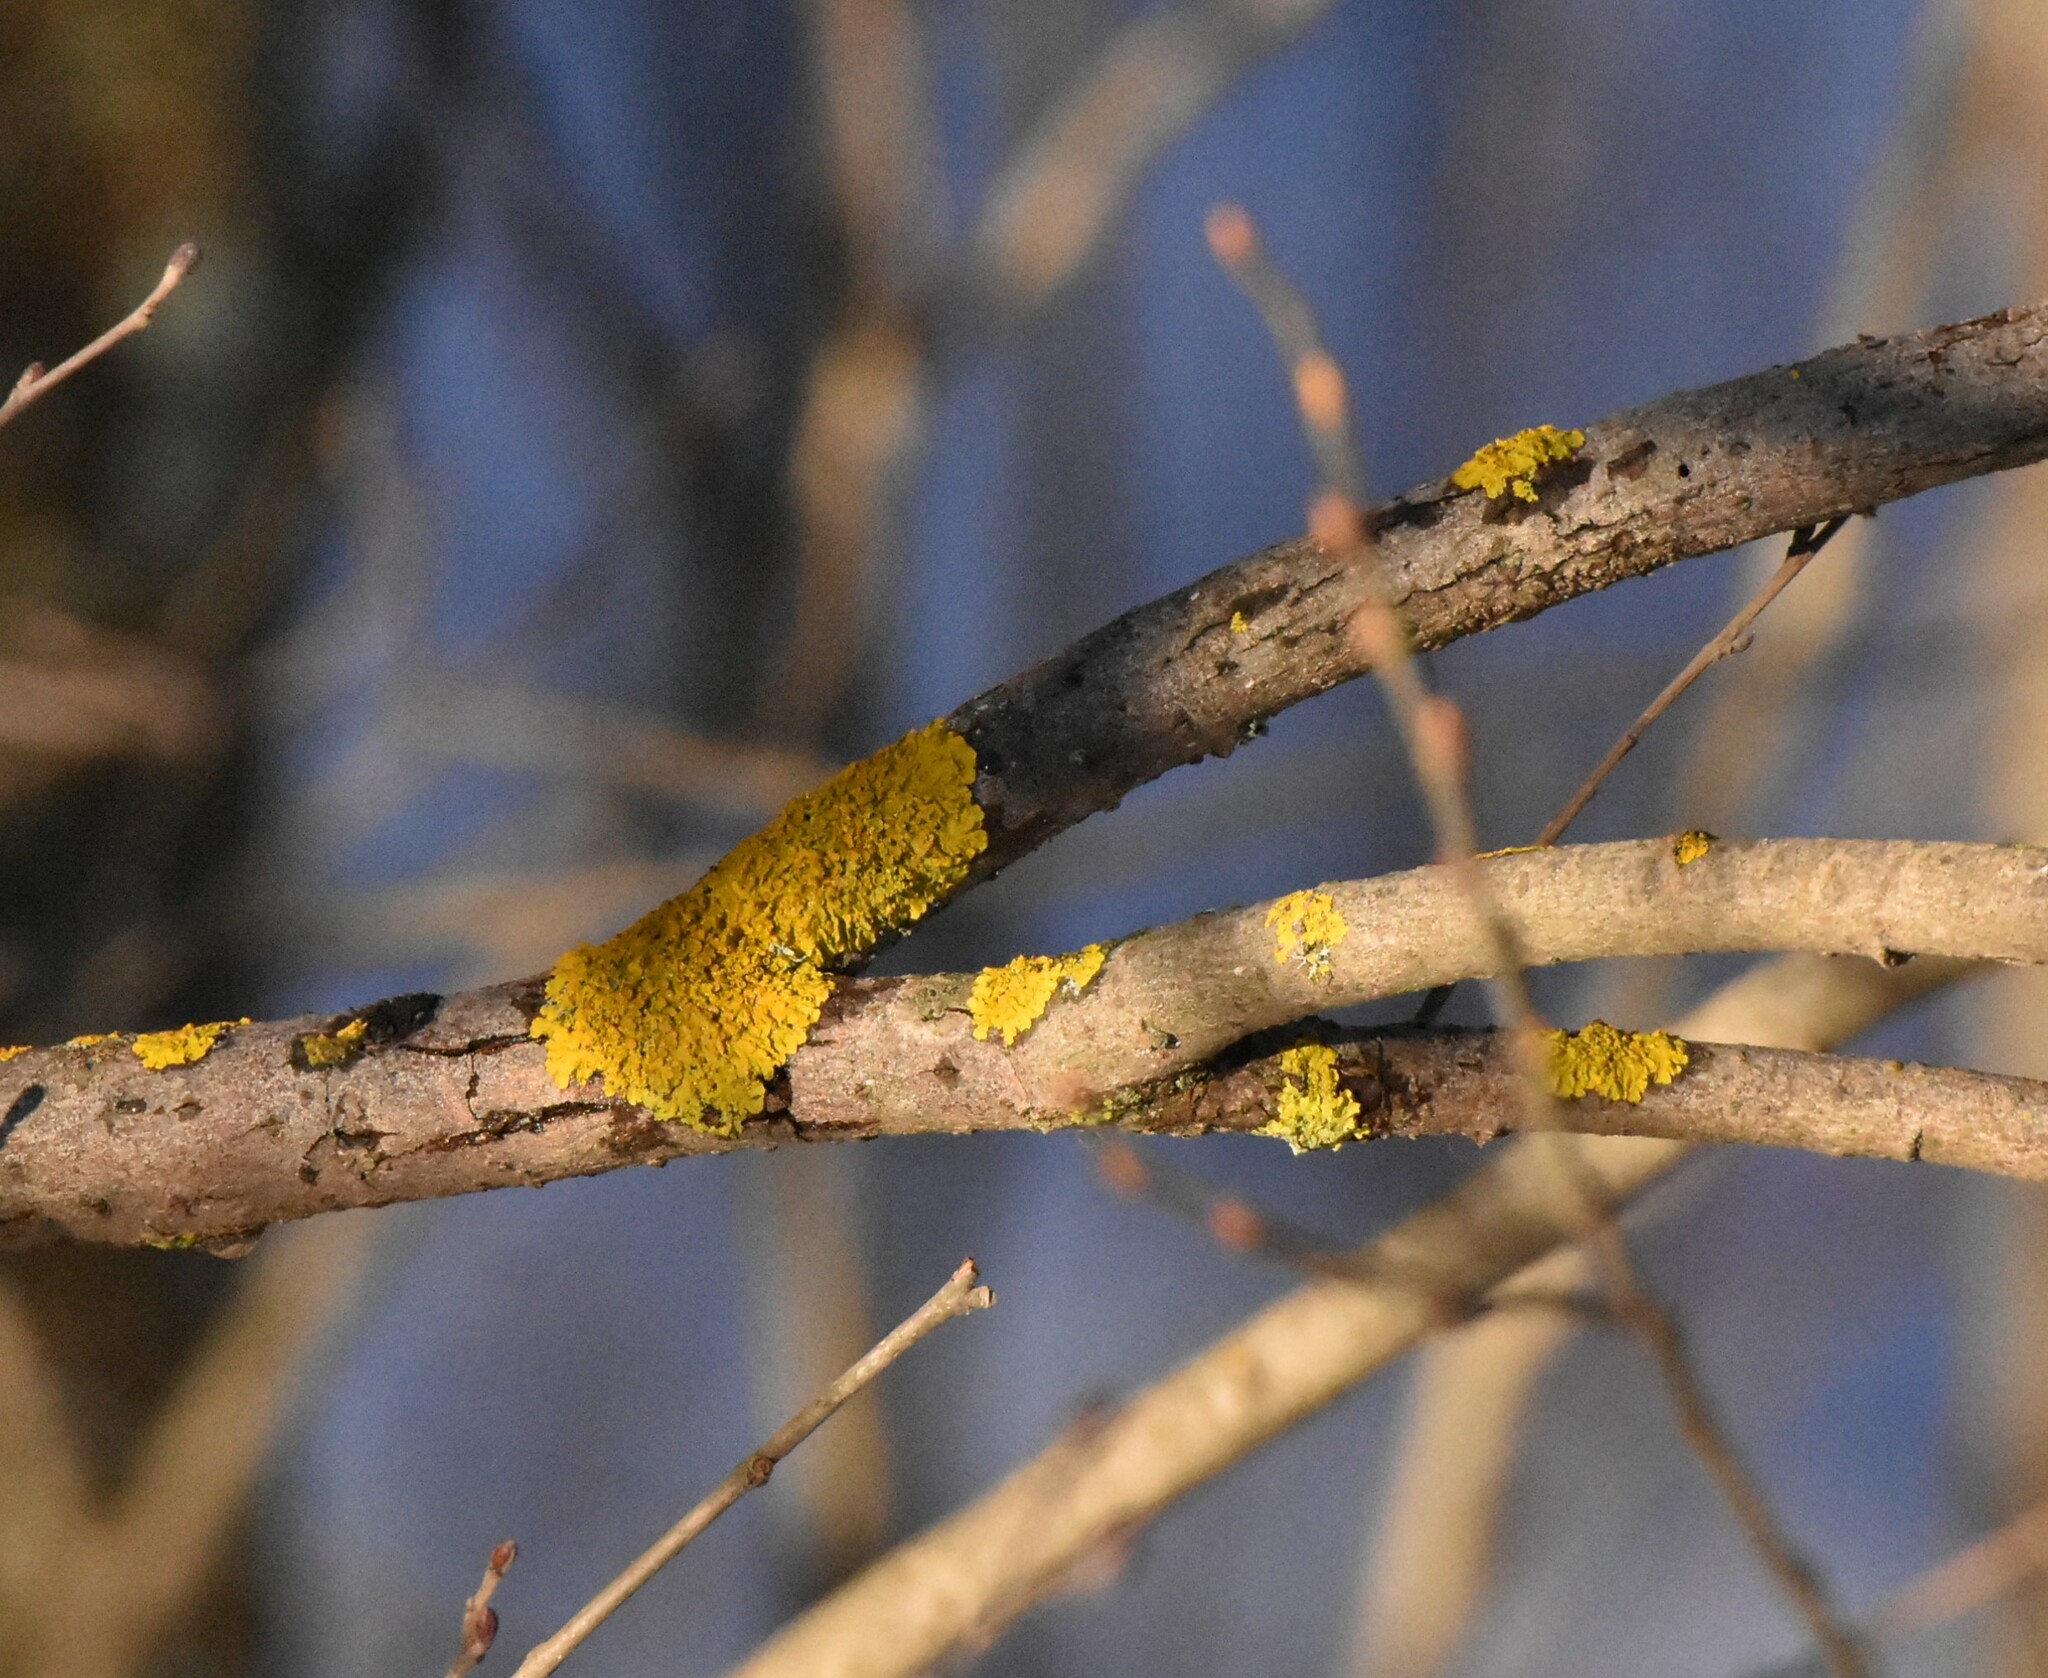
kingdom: Fungi
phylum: Ascomycota
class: Lecanoromycetes
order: Teloschistales
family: Teloschistaceae
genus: Xanthoria
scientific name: Xanthoria parietina
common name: Common orange lichen
